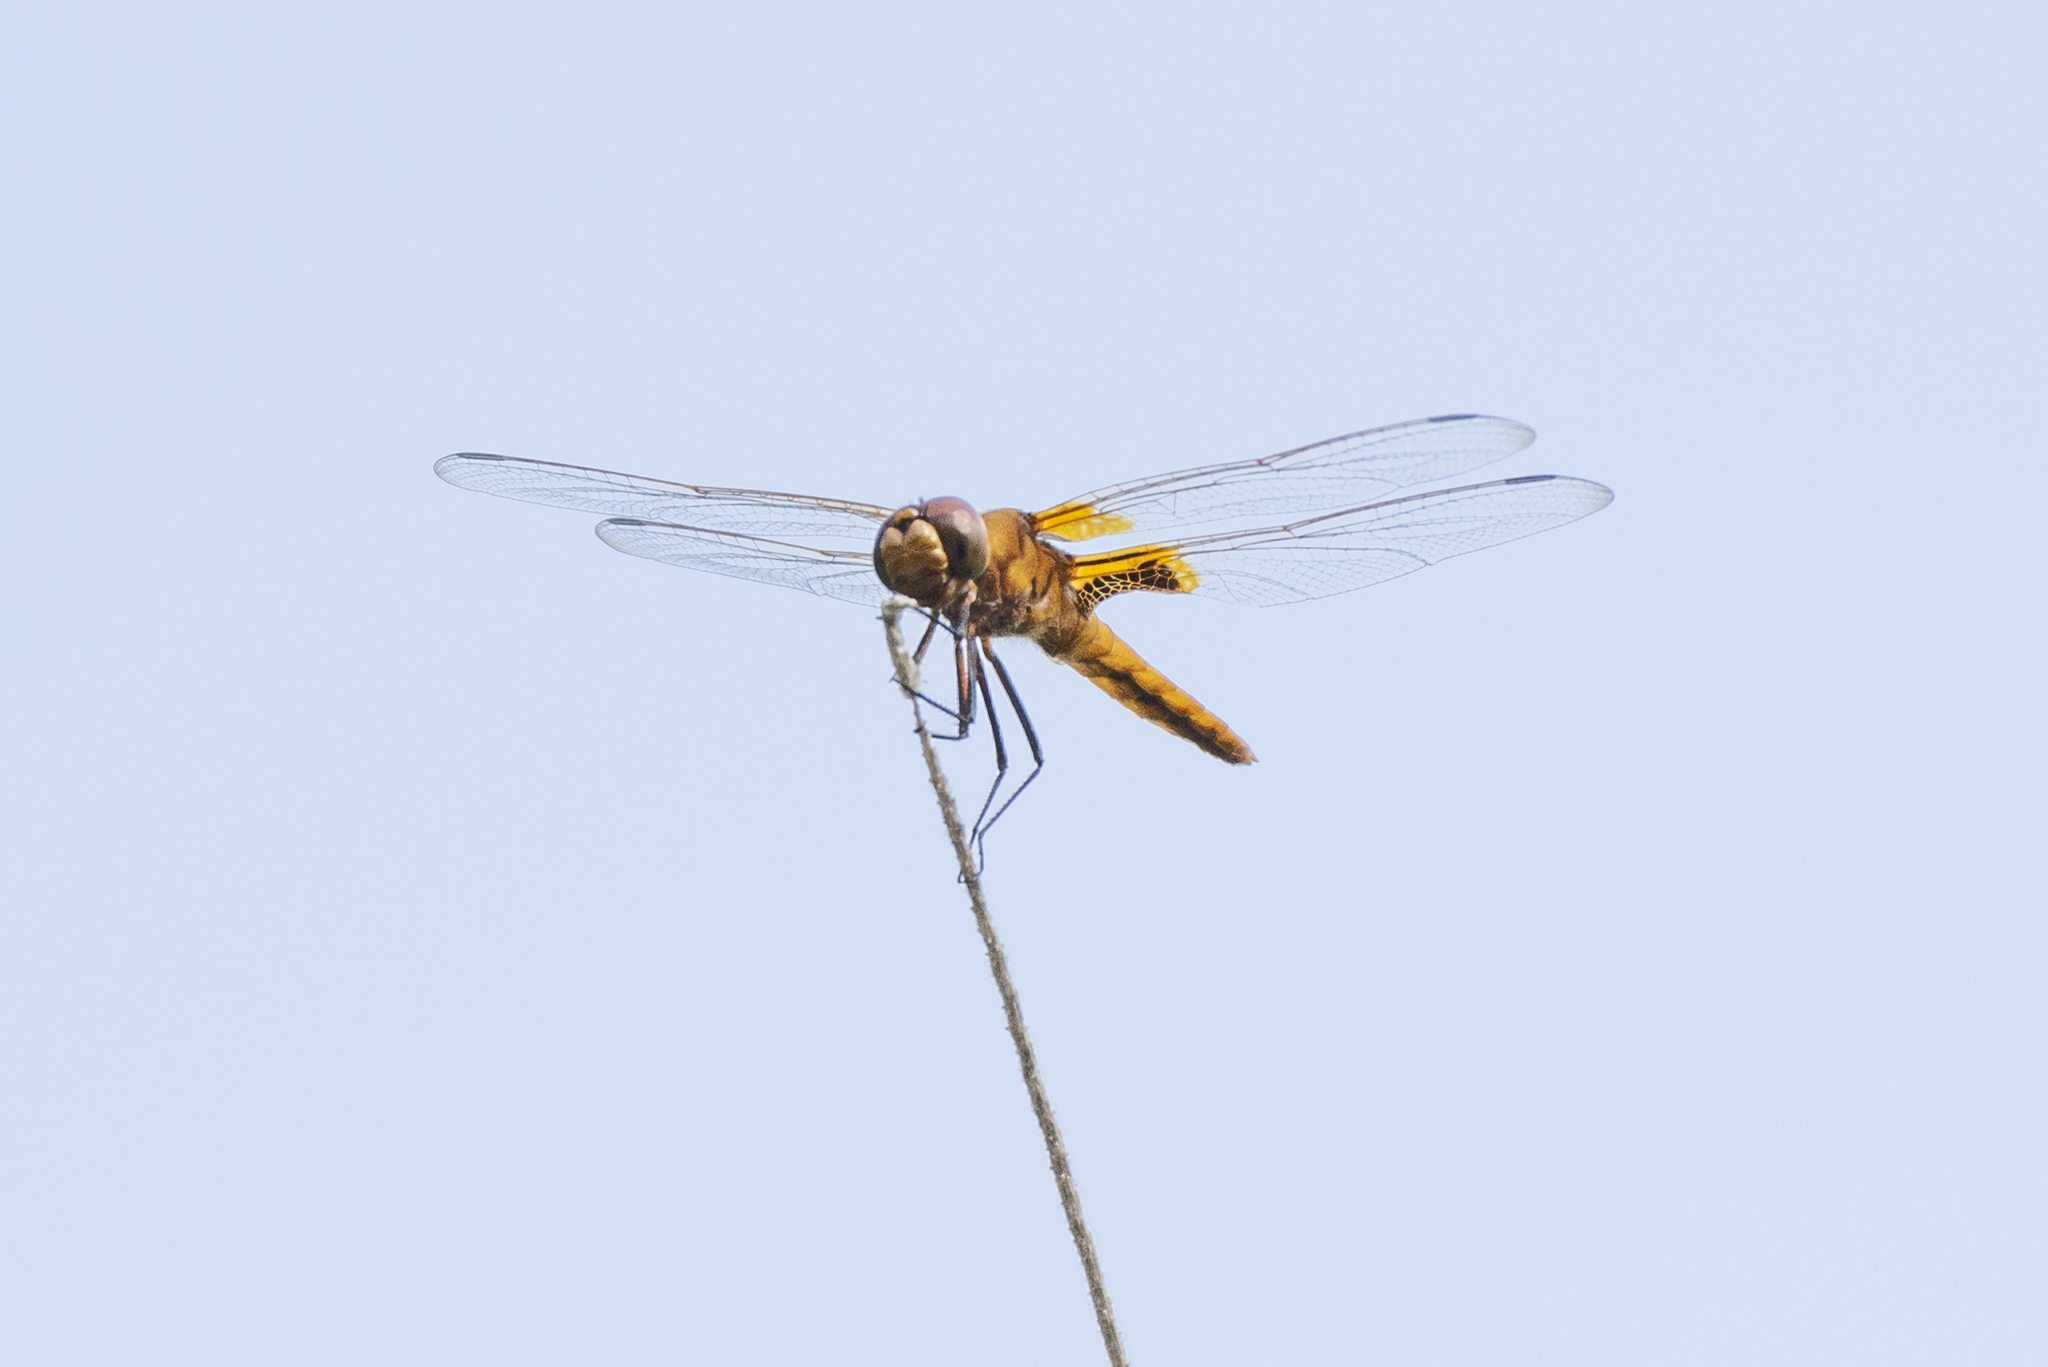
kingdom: Animalia
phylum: Arthropoda
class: Insecta
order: Odonata
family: Libellulidae
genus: Urothemis
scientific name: Urothemis signata
